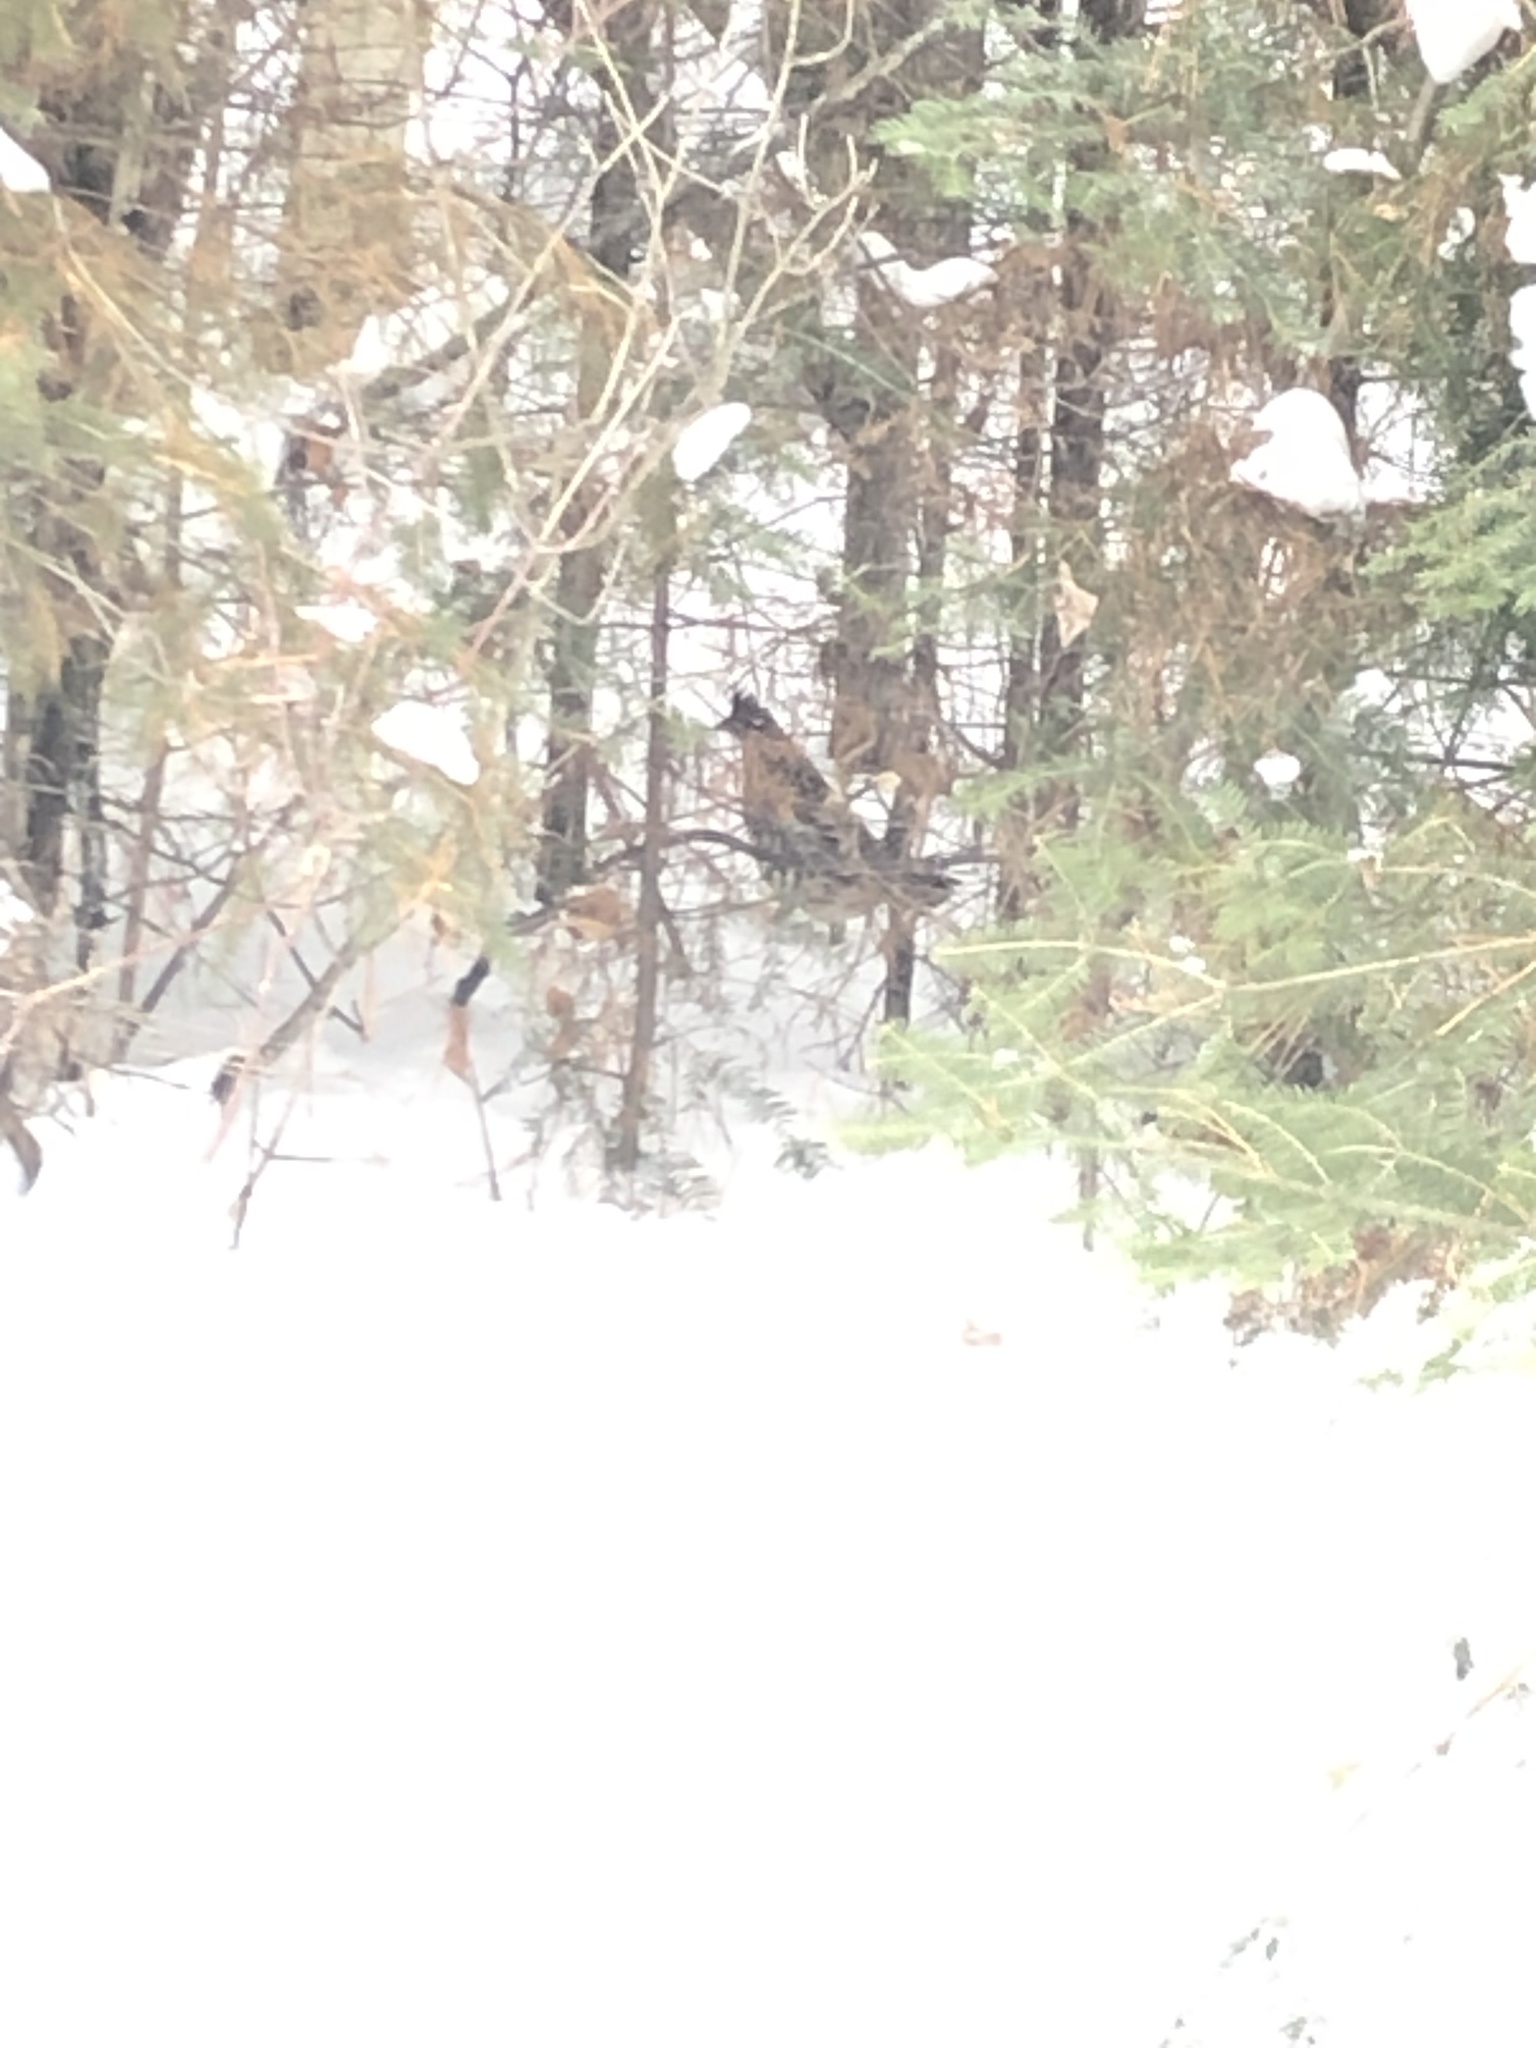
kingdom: Animalia
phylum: Chordata
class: Aves
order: Galliformes
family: Phasianidae
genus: Bonasa
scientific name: Bonasa umbellus
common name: Ruffed grouse
